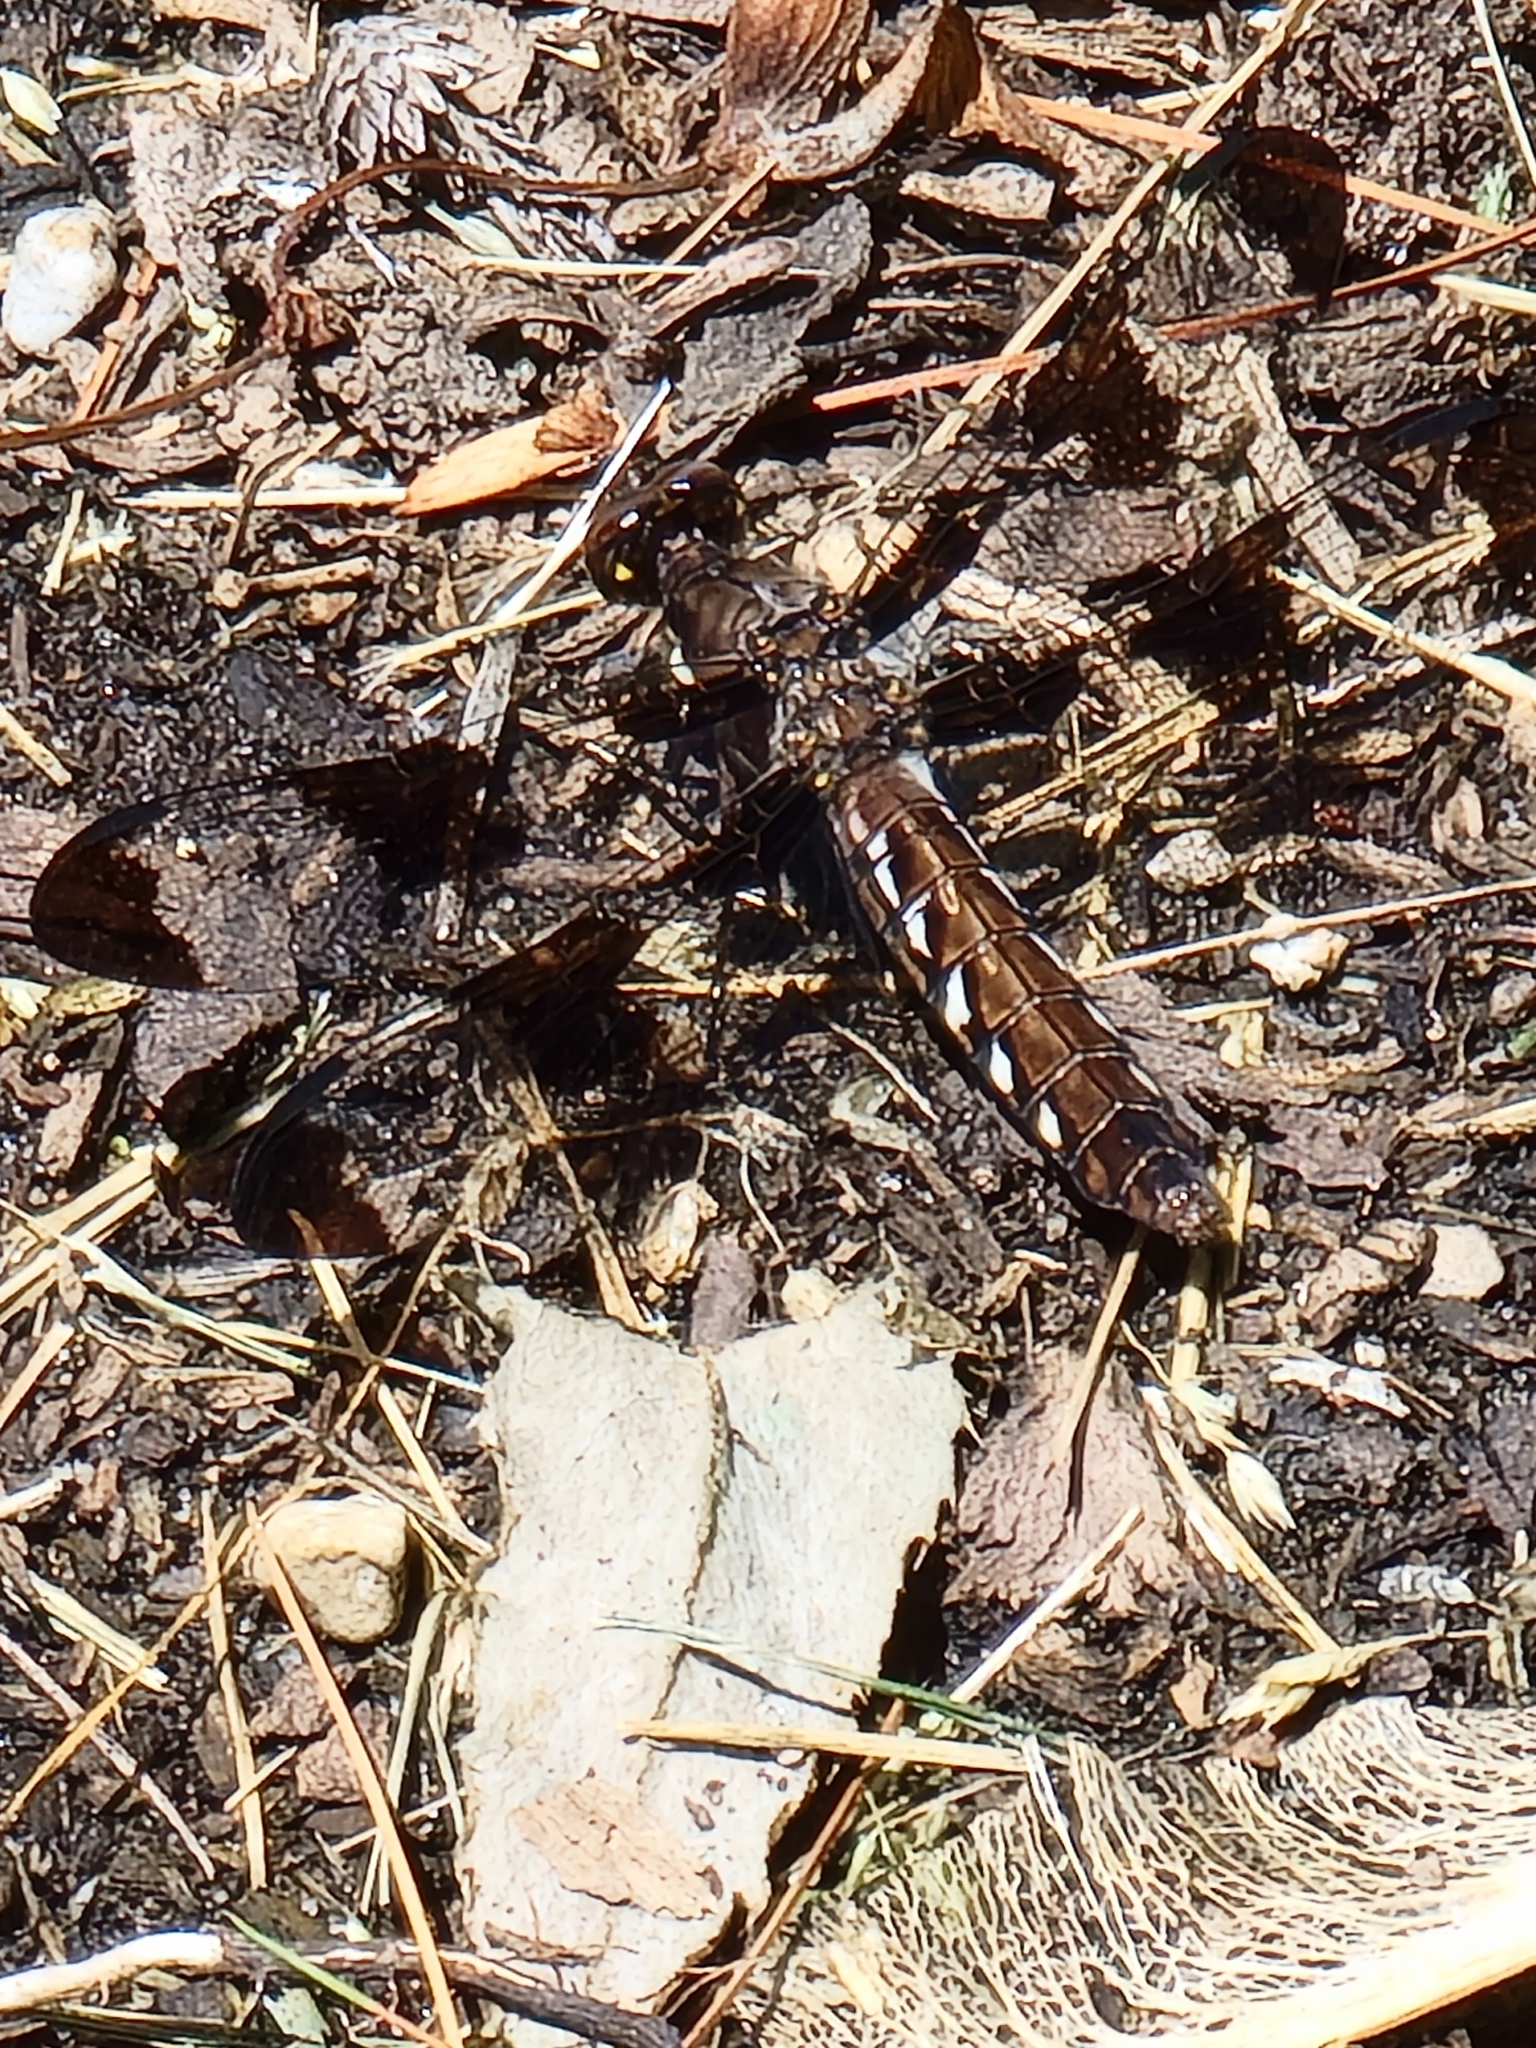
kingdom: Animalia
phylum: Arthropoda
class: Insecta
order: Odonata
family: Libellulidae
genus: Plathemis
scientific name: Plathemis lydia
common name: Common whitetail
